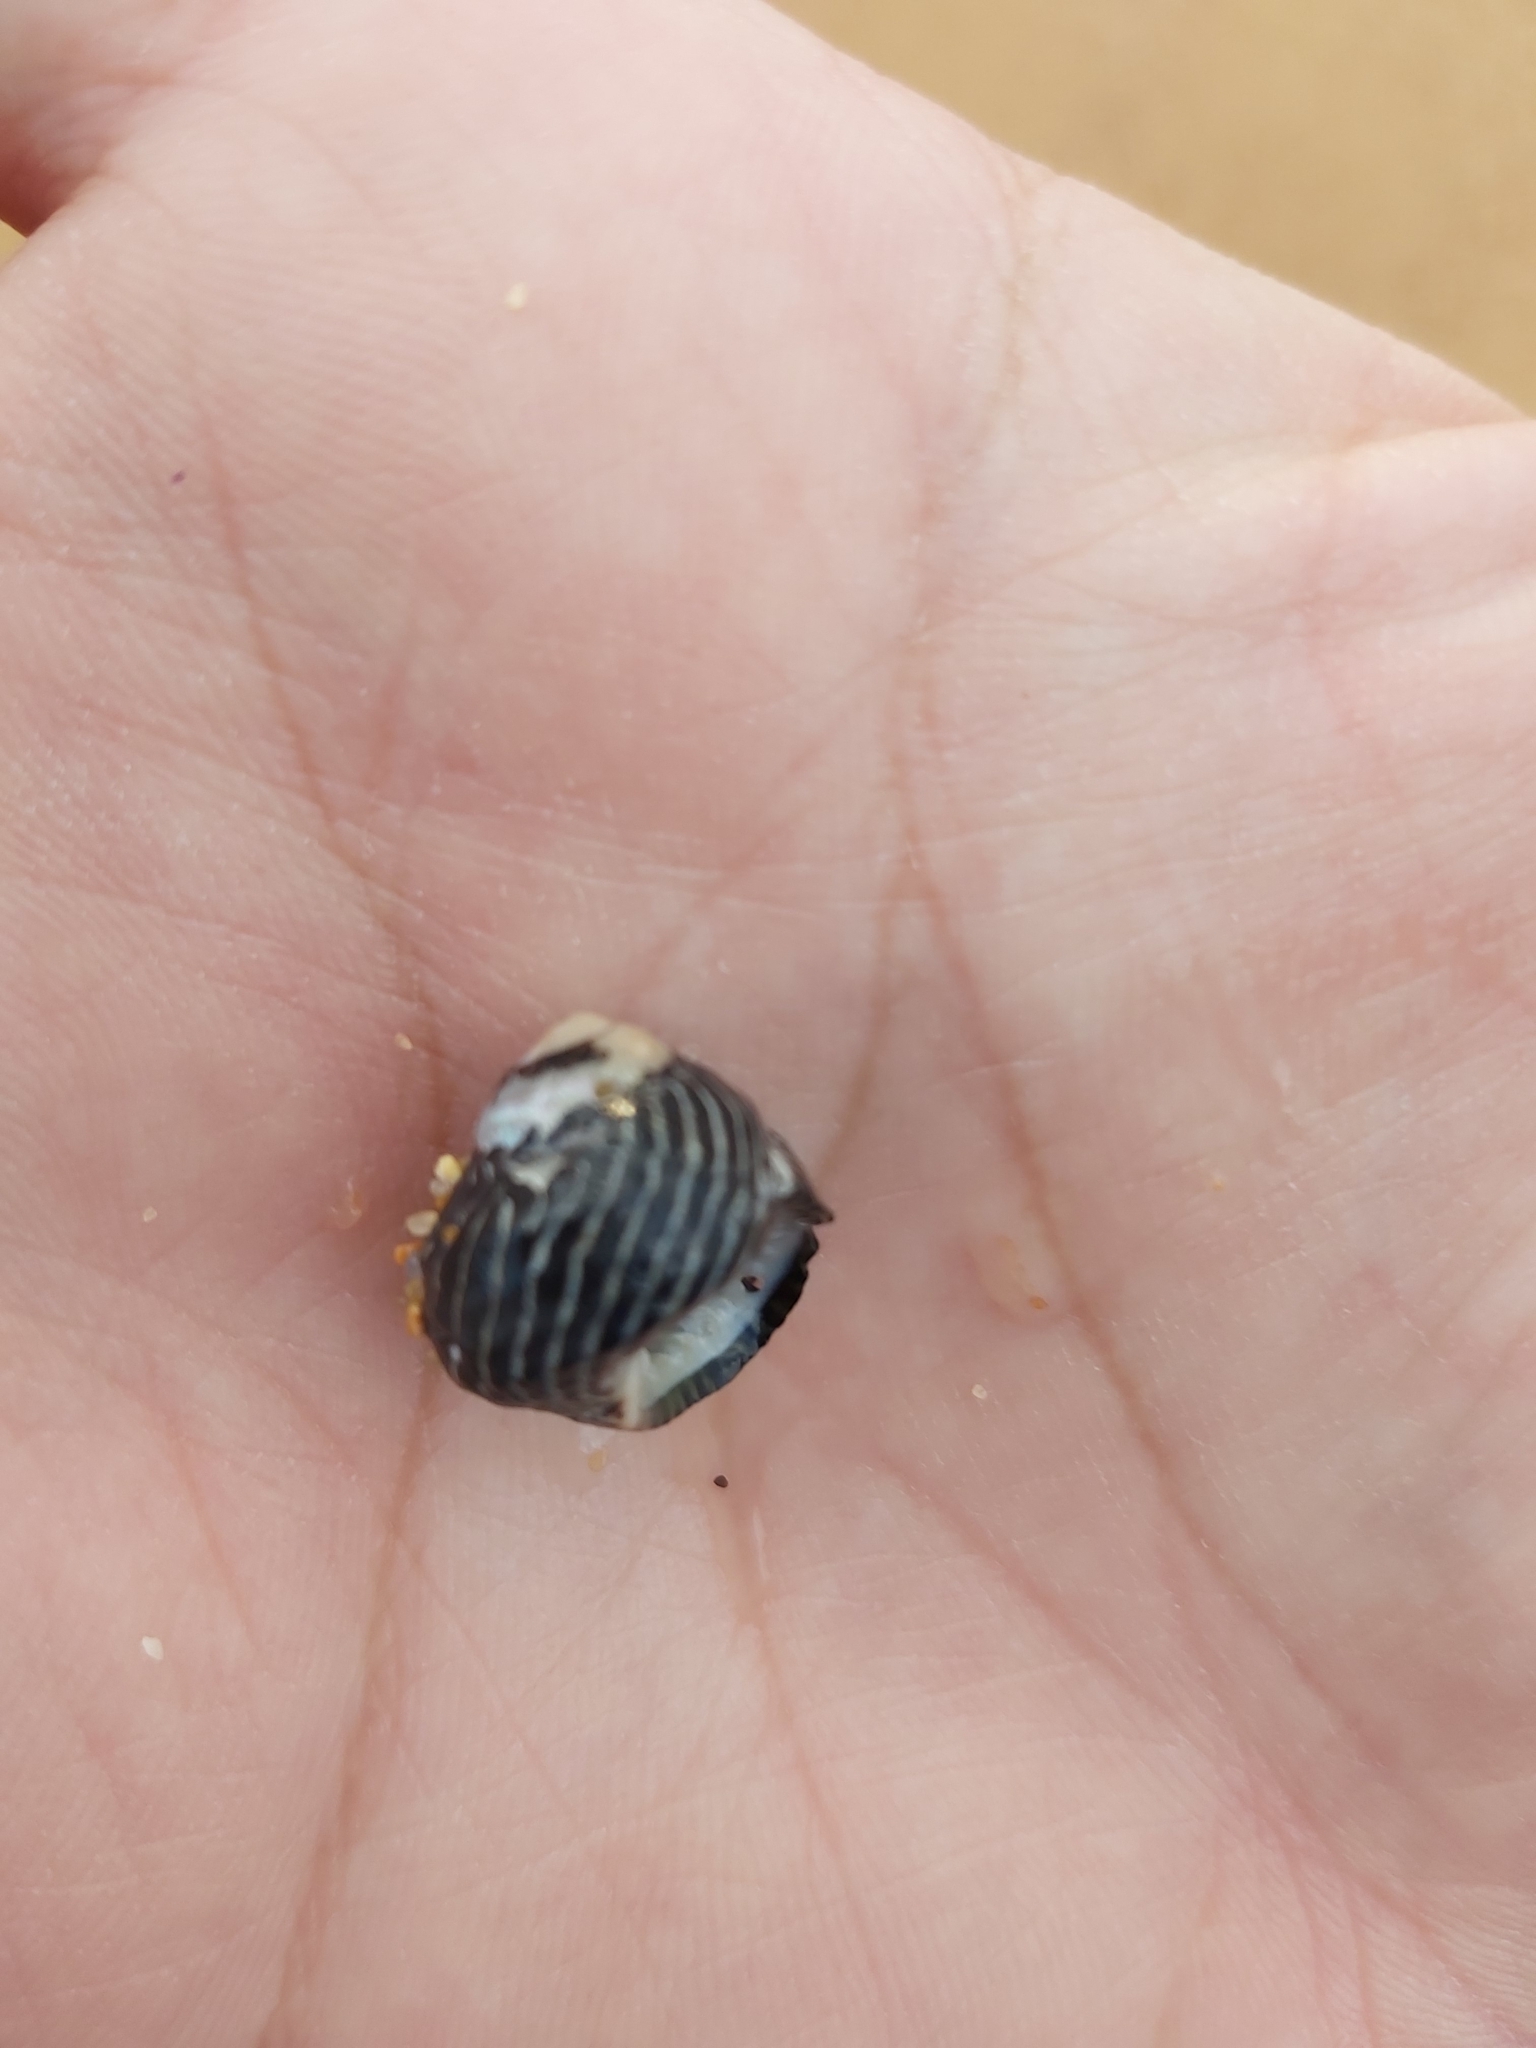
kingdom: Animalia
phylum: Mollusca
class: Gastropoda
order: Trochida
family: Trochidae
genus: Austrocochlea
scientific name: Austrocochlea porcata
